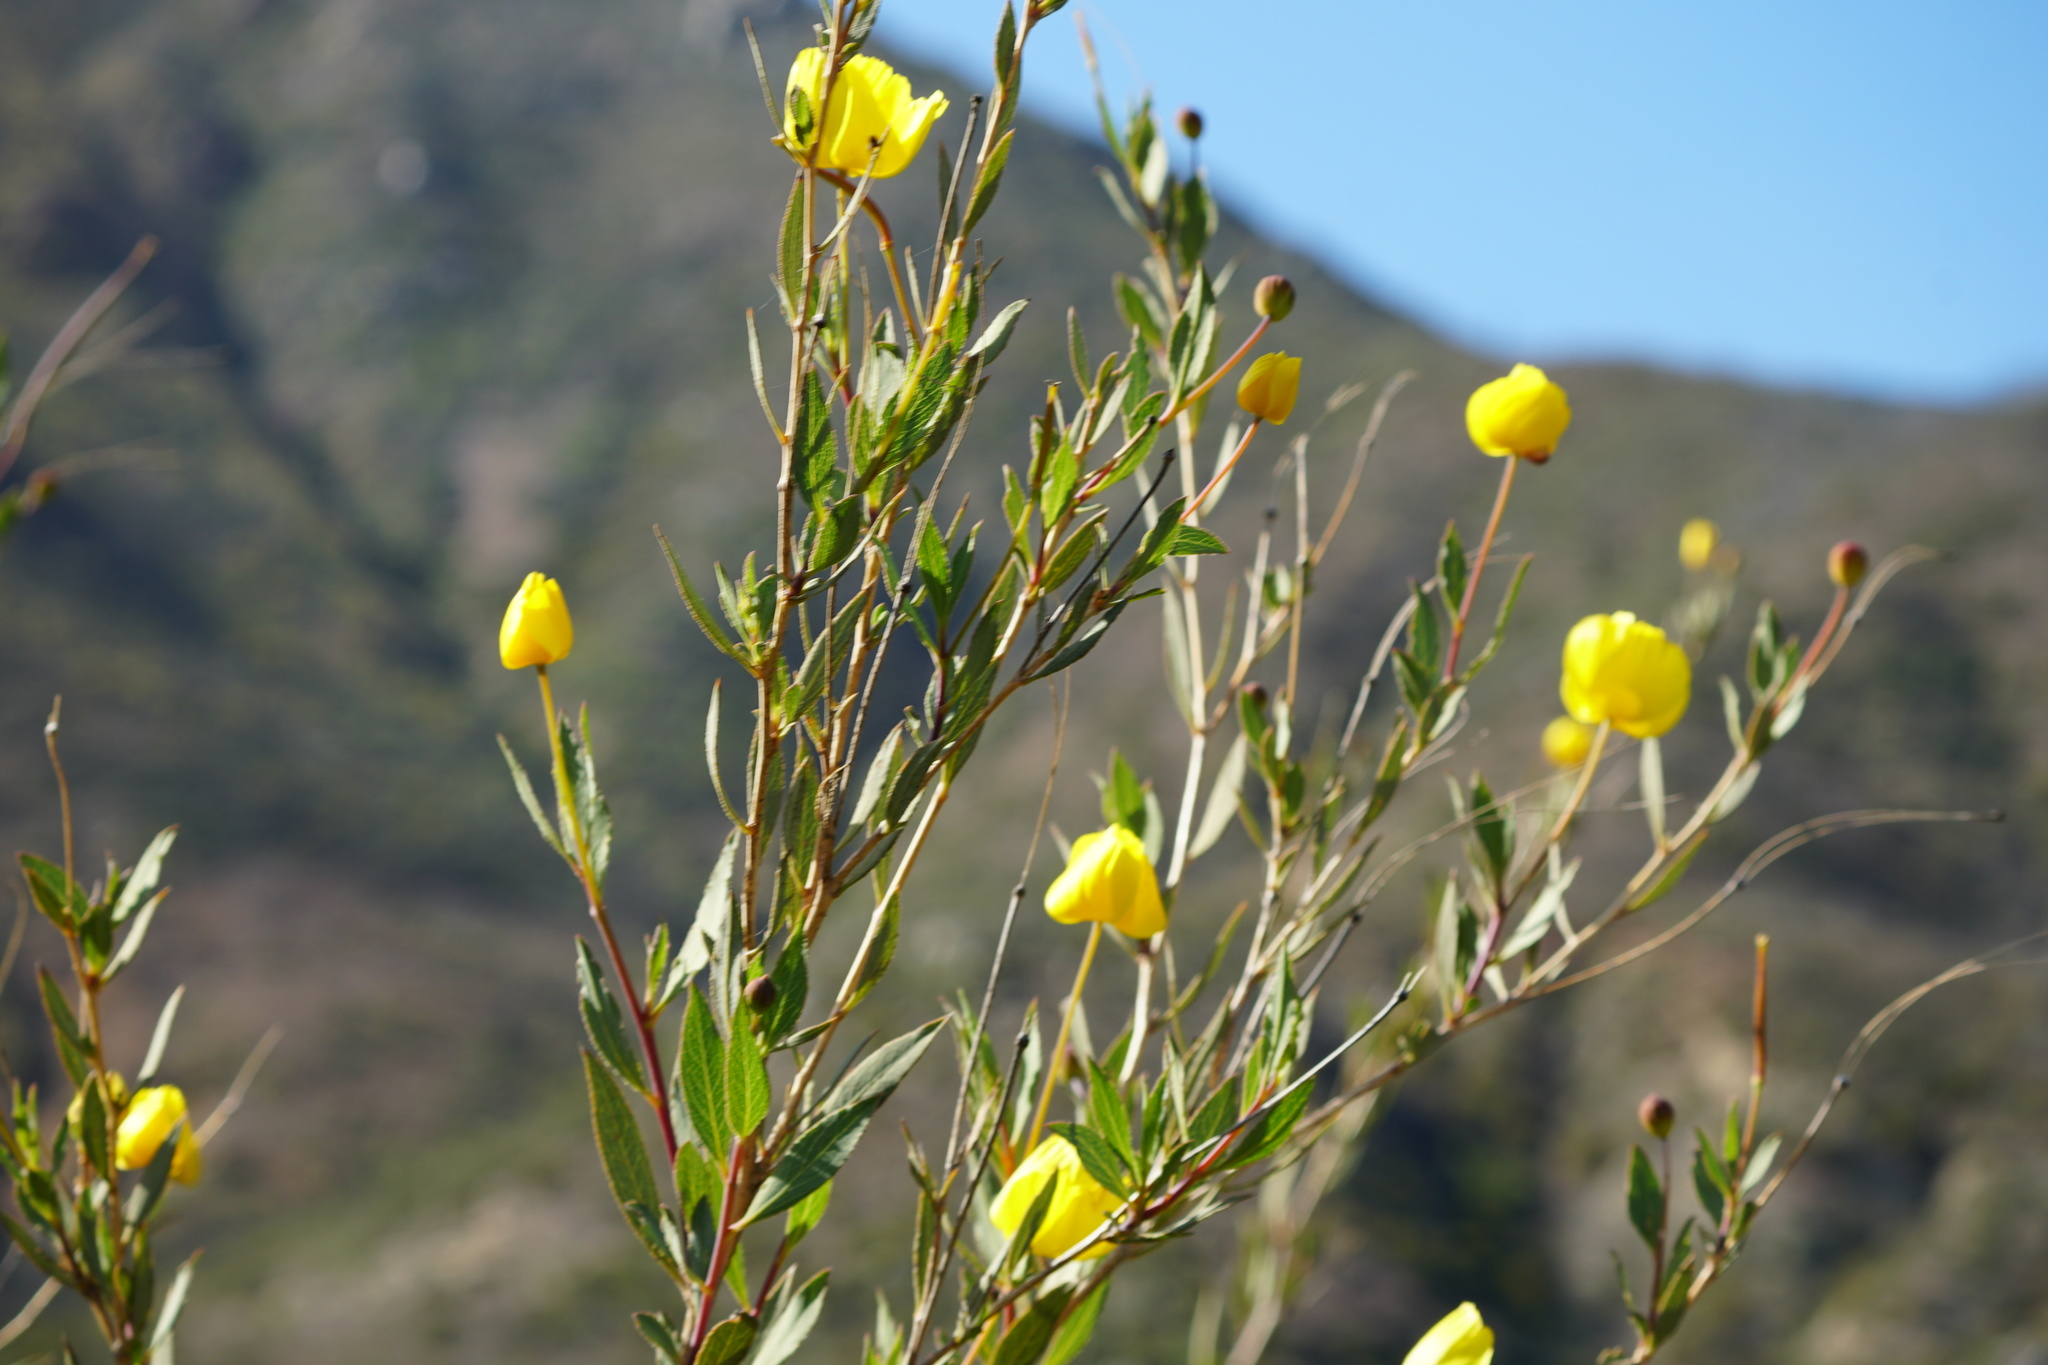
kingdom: Plantae
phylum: Tracheophyta
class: Magnoliopsida
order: Ranunculales
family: Papaveraceae
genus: Dendromecon
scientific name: Dendromecon rigida
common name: Tree poppy
